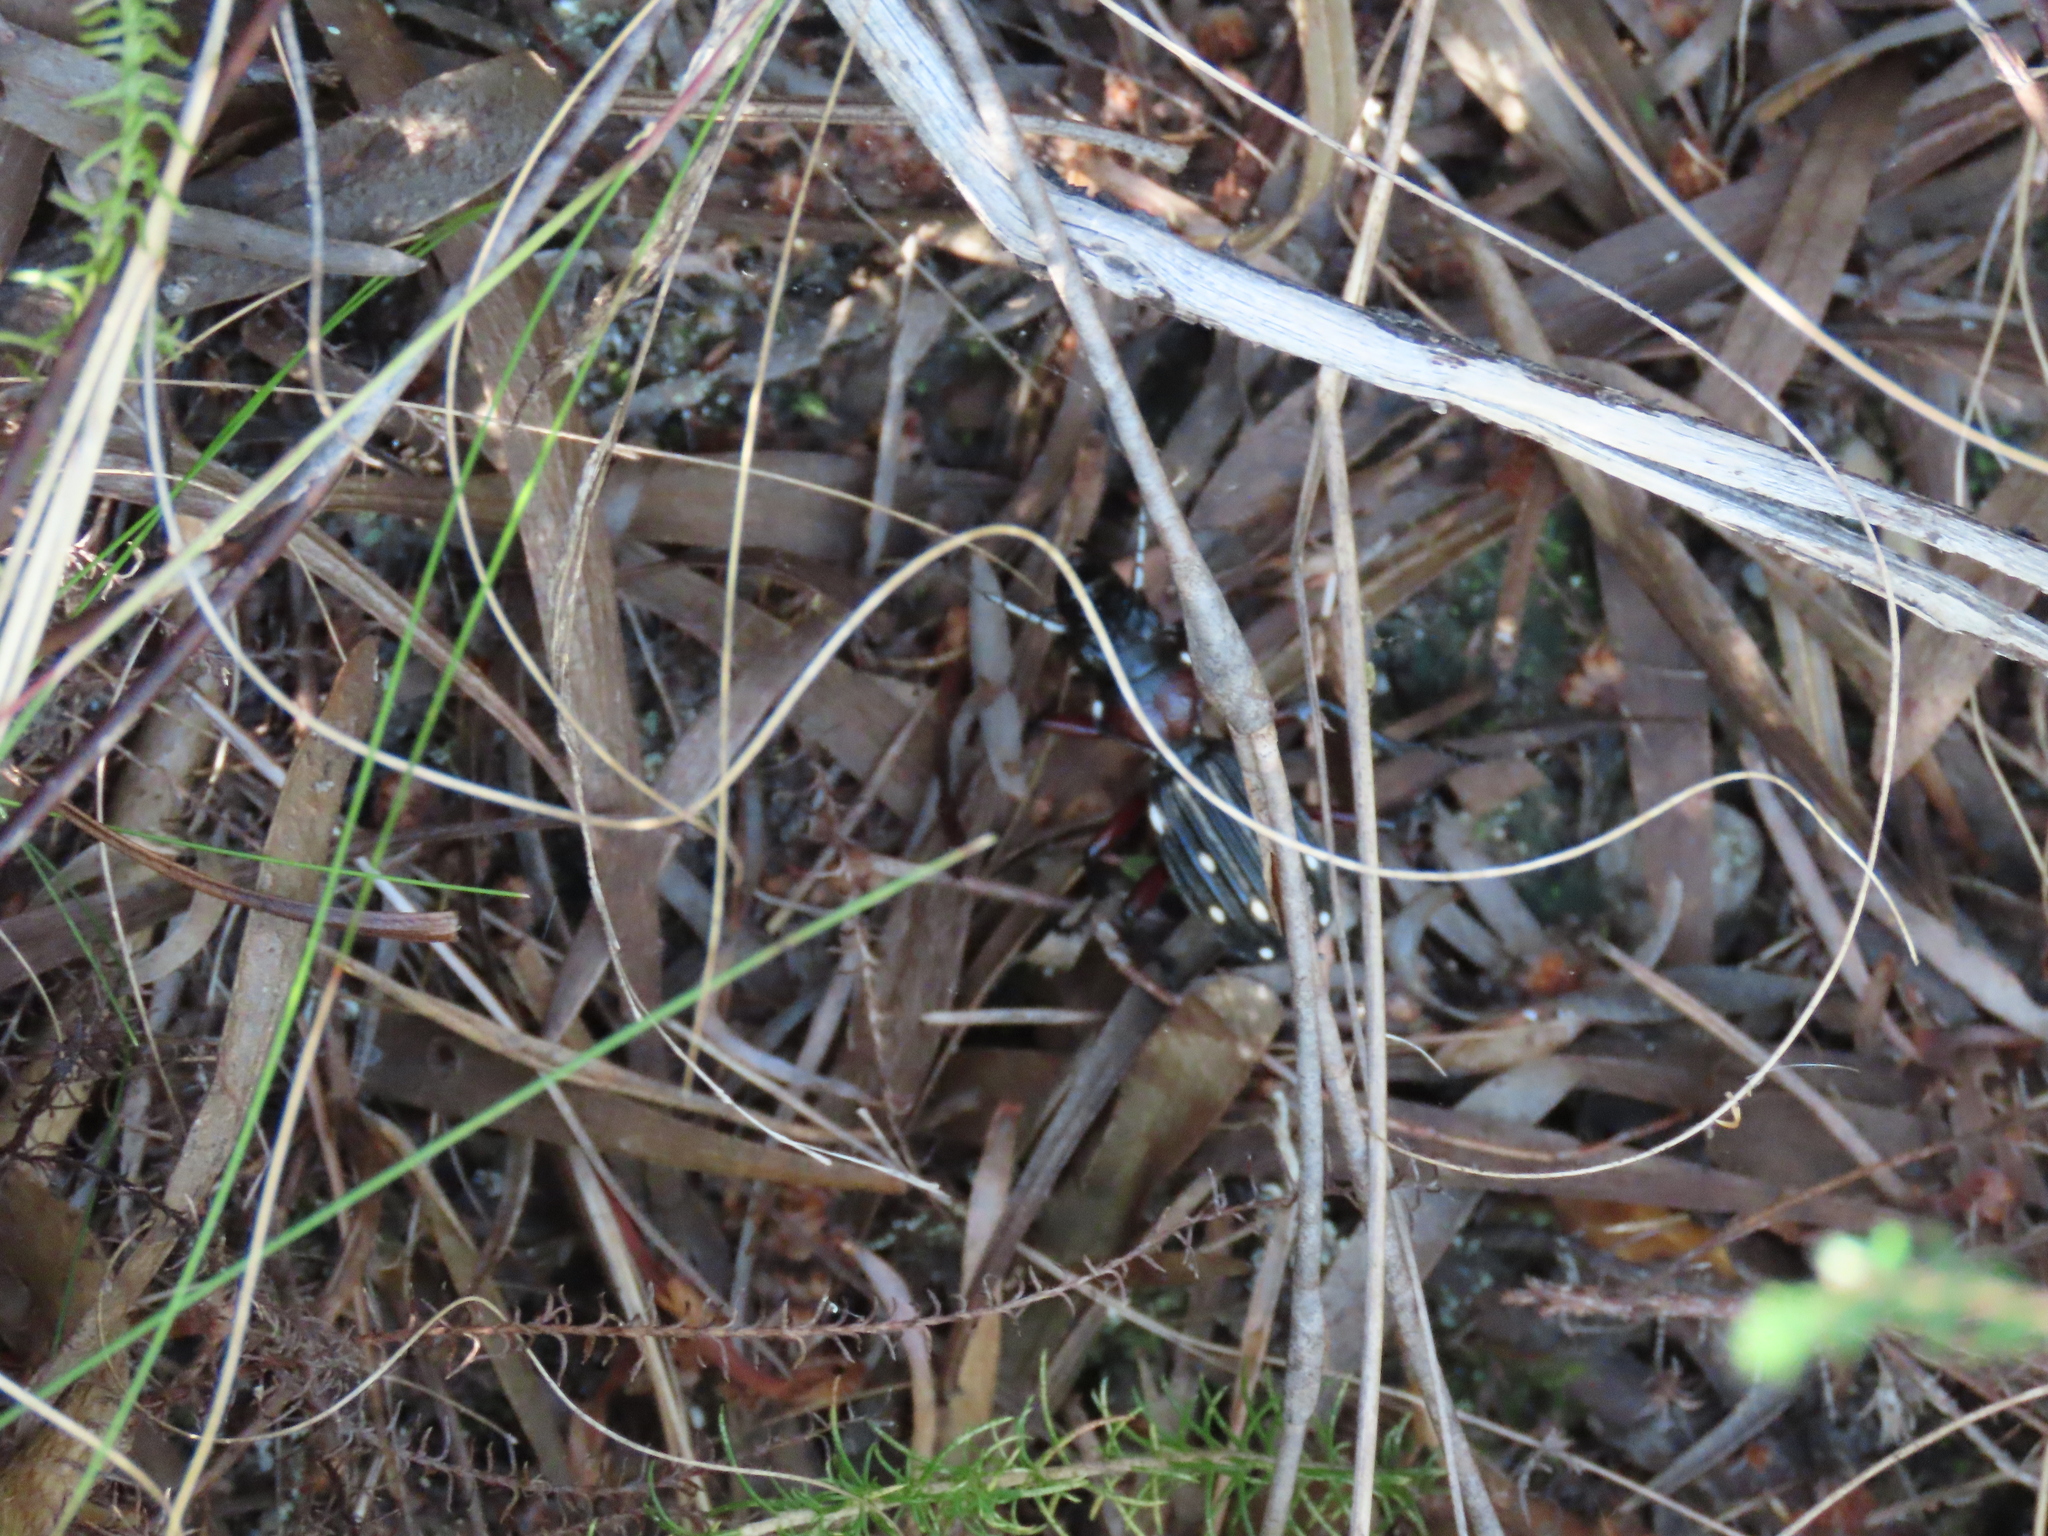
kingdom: Animalia
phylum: Arthropoda
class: Insecta
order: Coleoptera
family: Carabidae
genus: Anthia
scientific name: Anthia decemguttata
